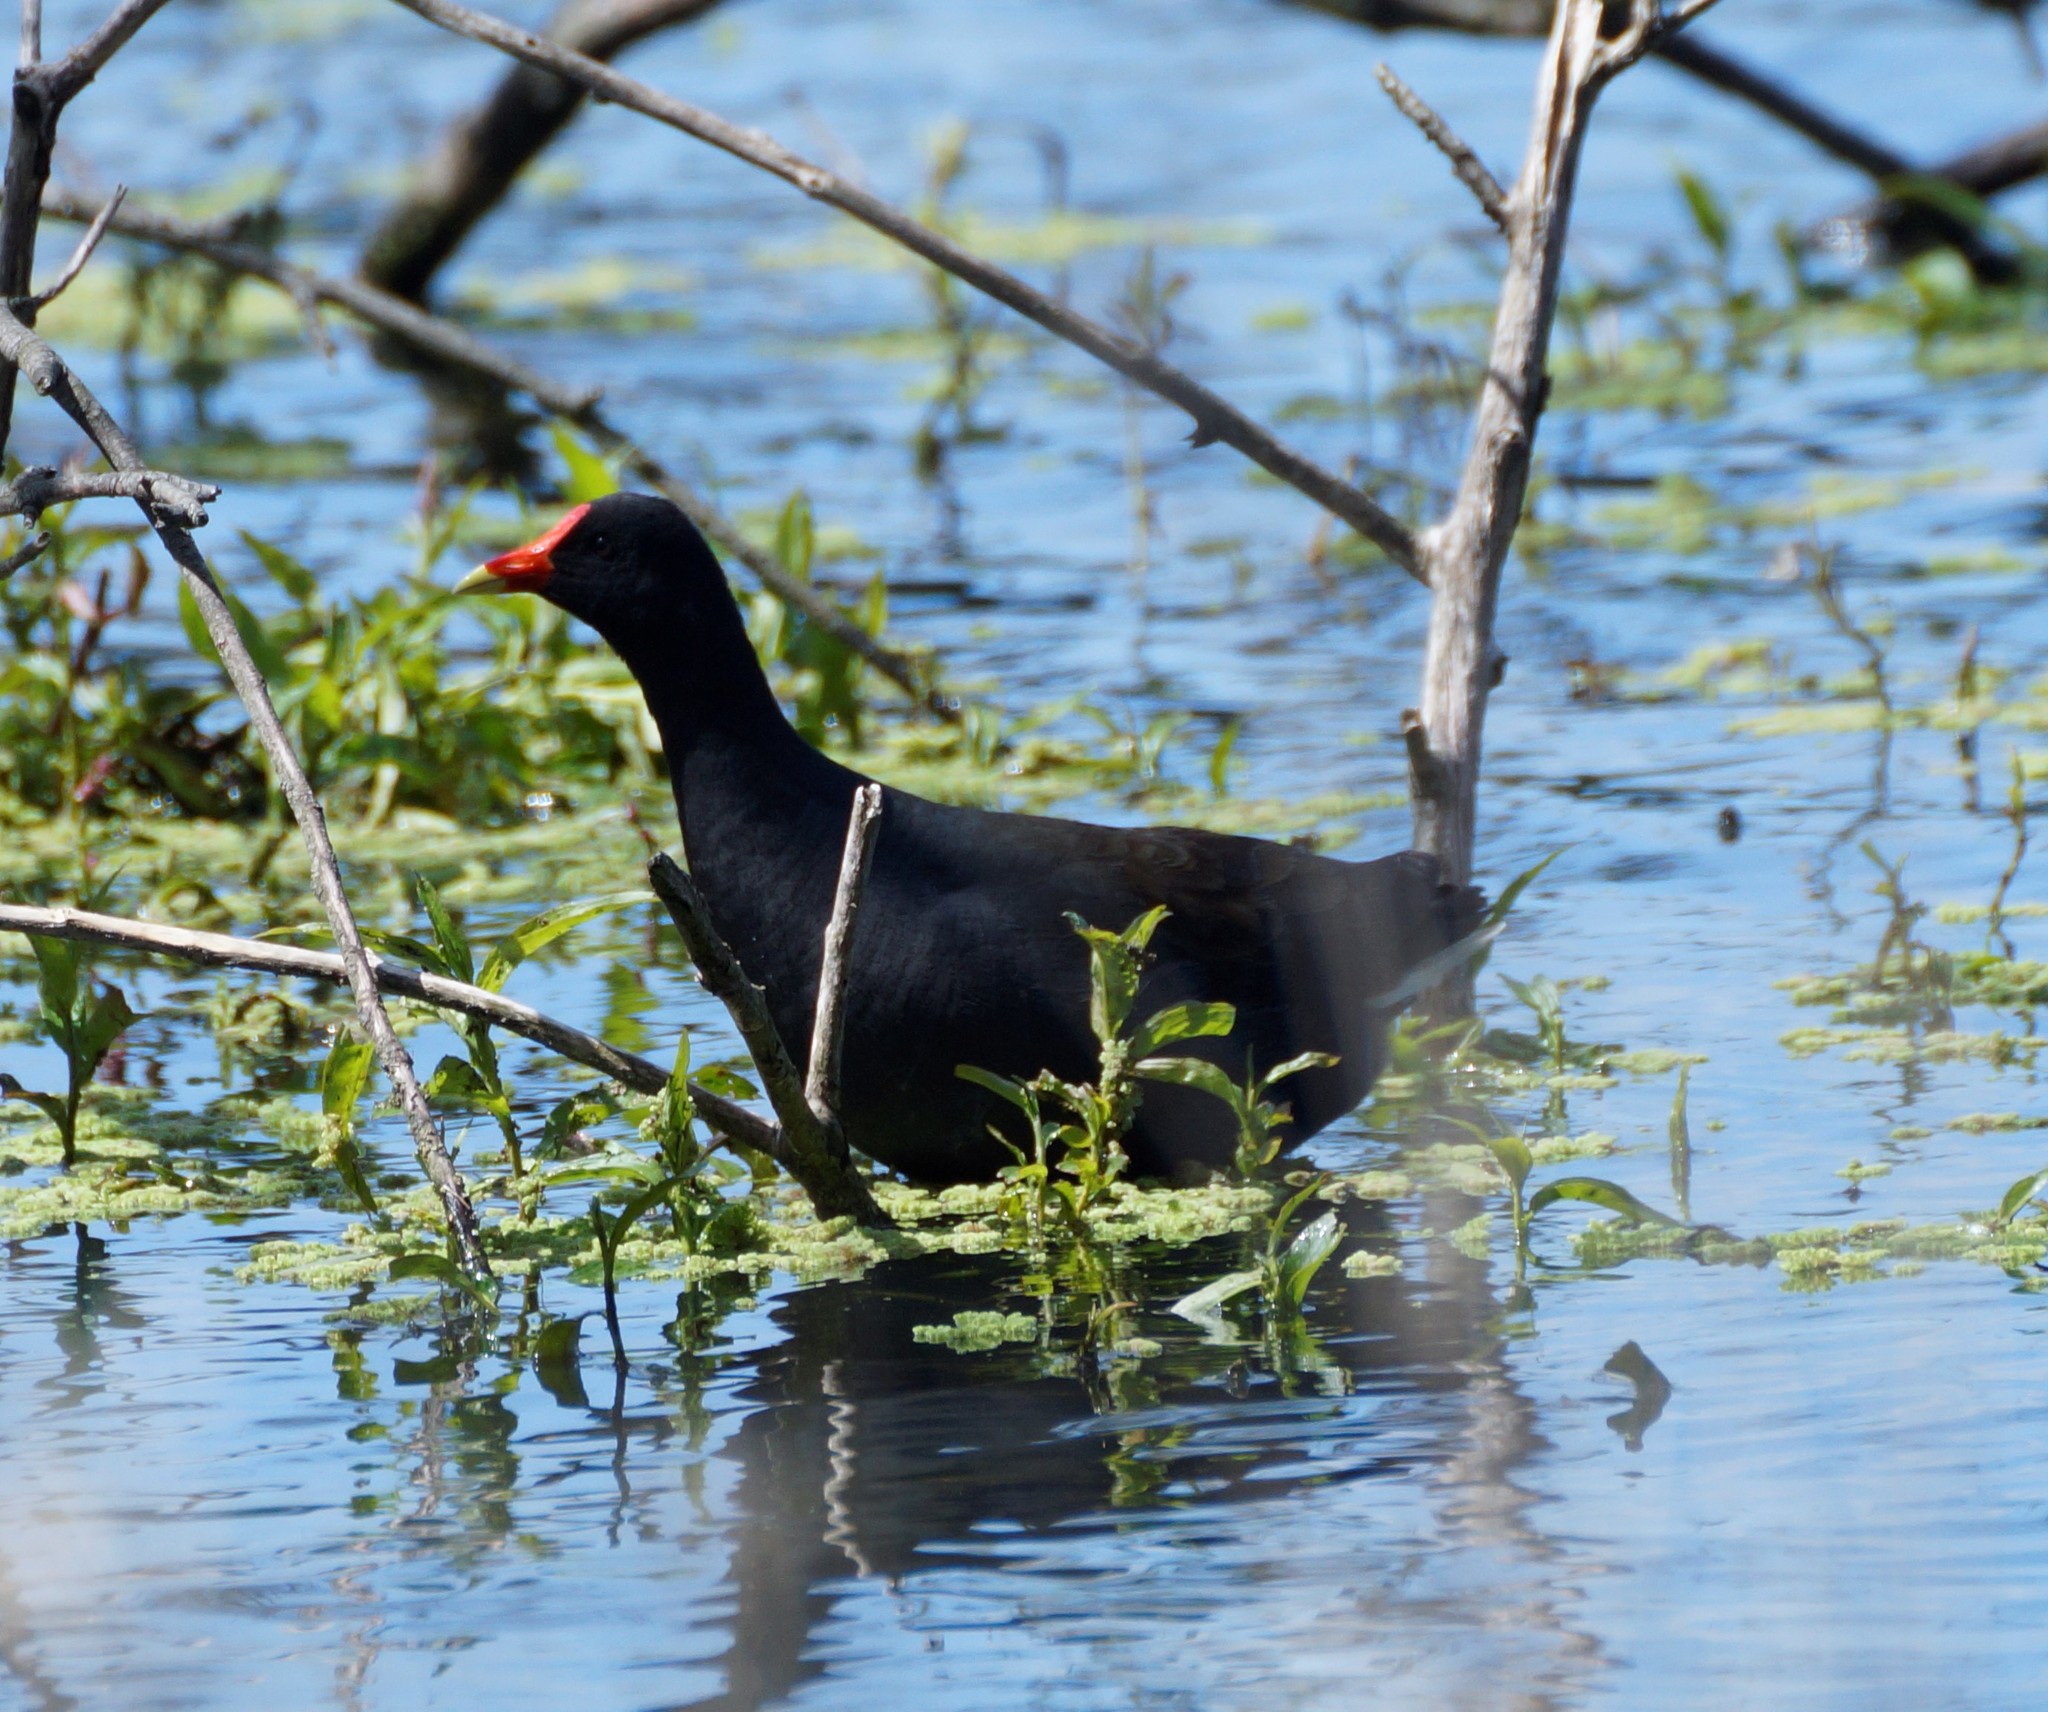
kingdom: Animalia
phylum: Chordata
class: Aves
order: Gruiformes
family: Rallidae
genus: Gallinula
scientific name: Gallinula tenebrosa
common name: Dusky moorhen
